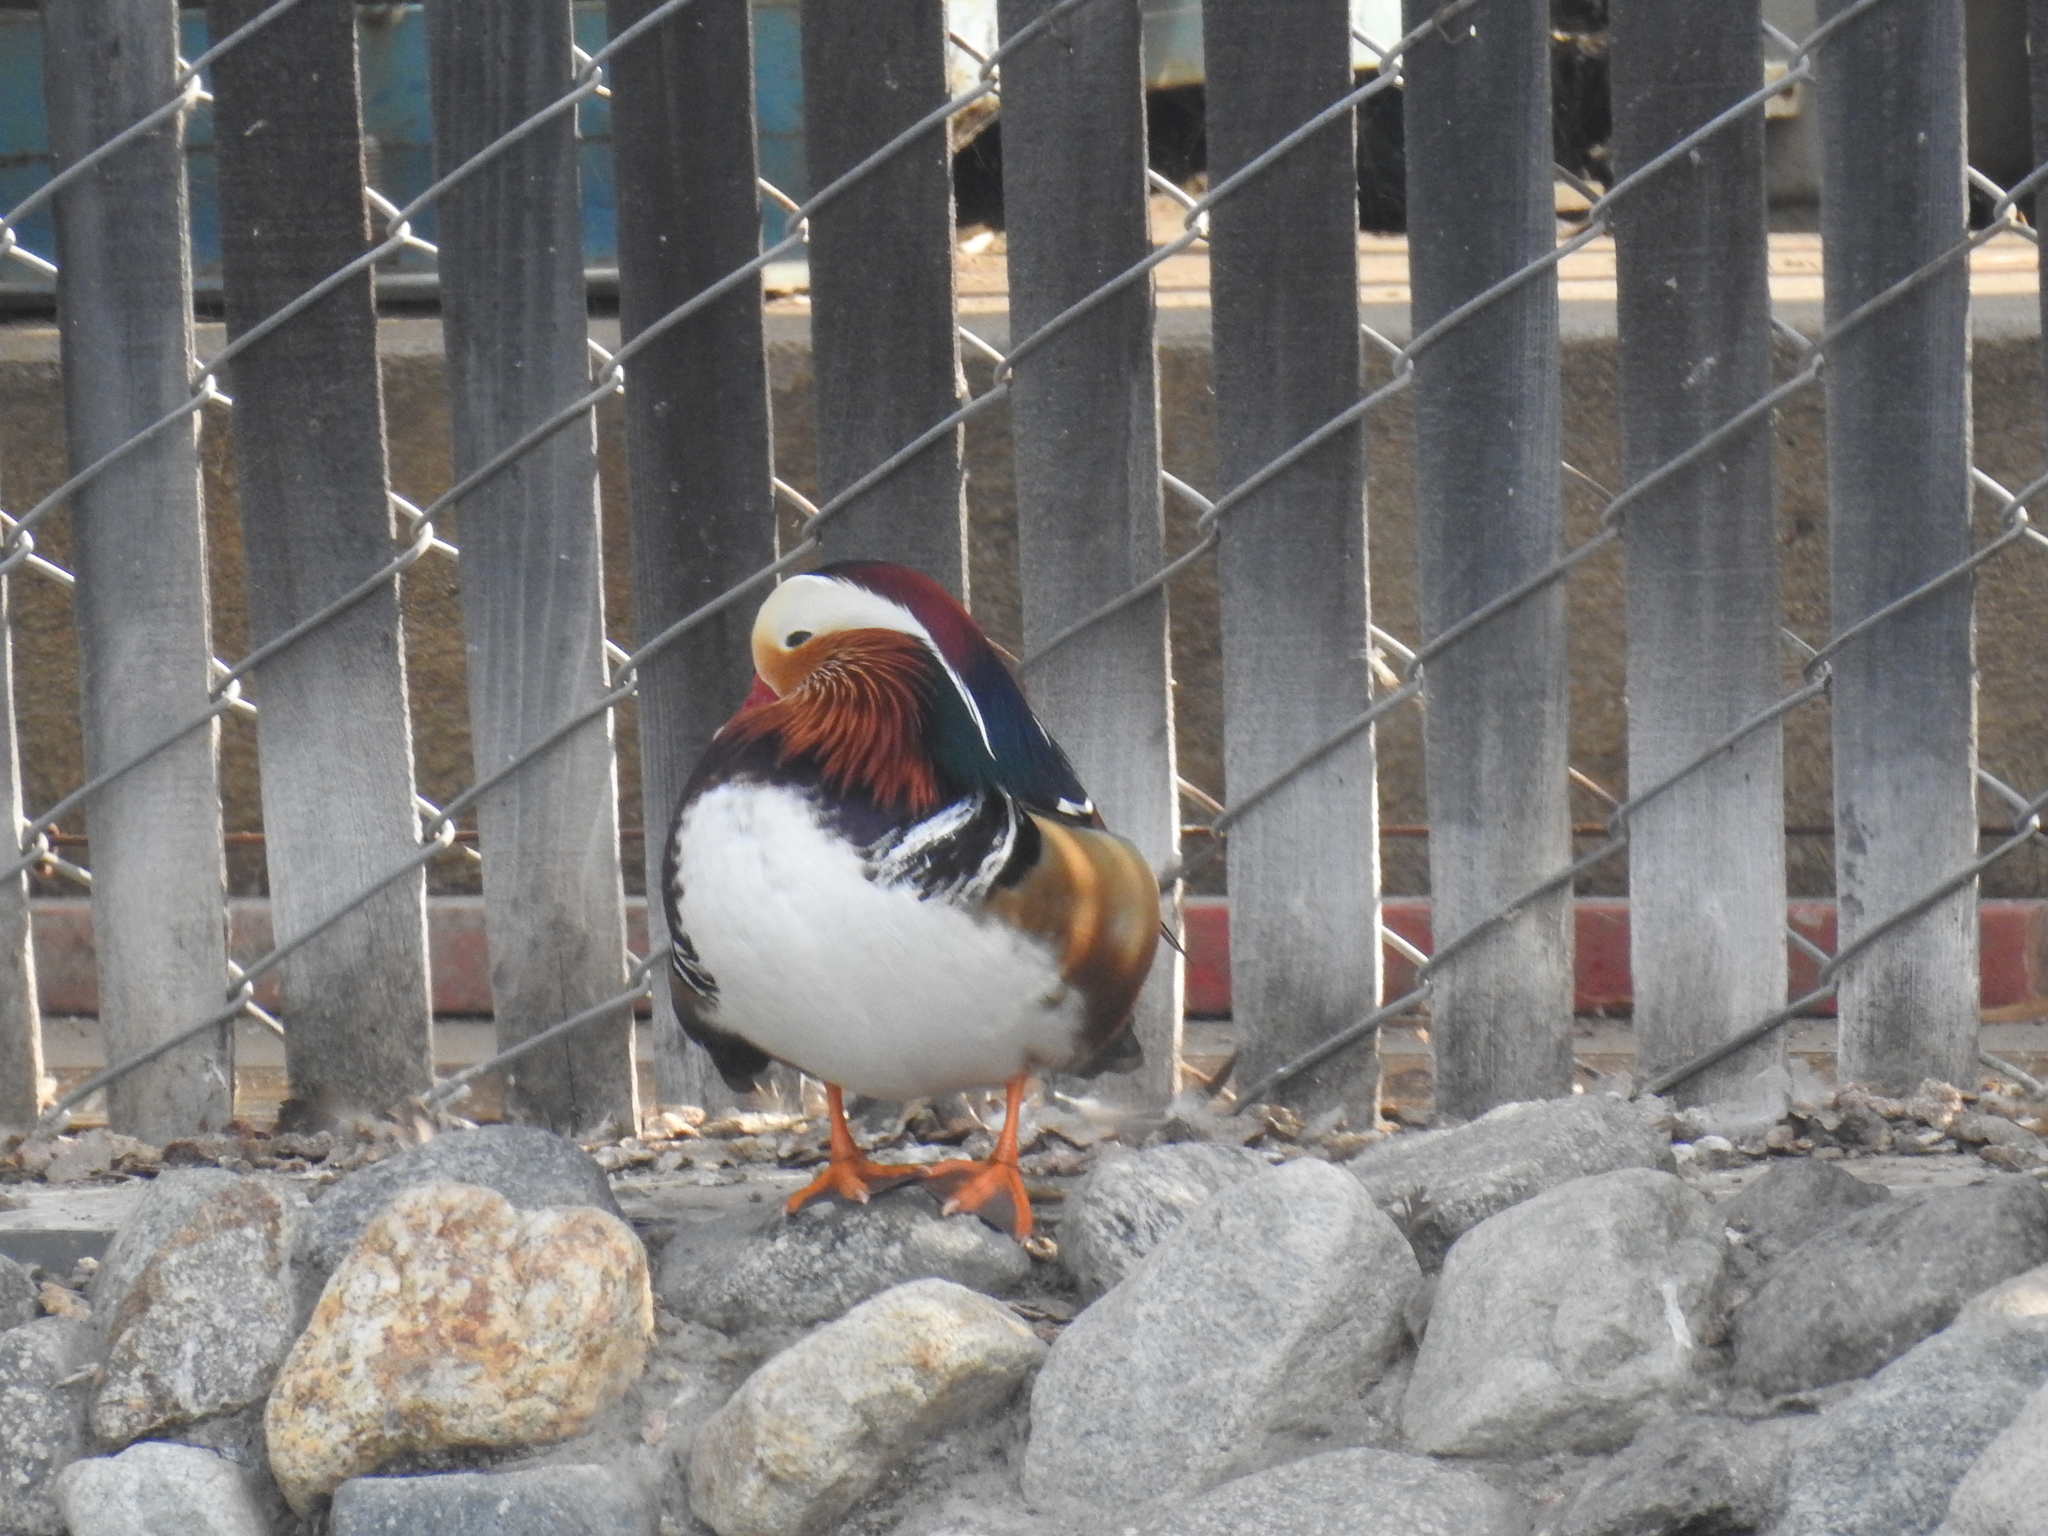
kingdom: Animalia
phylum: Chordata
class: Aves
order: Anseriformes
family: Anatidae
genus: Aix
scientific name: Aix galericulata
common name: Mandarin duck
